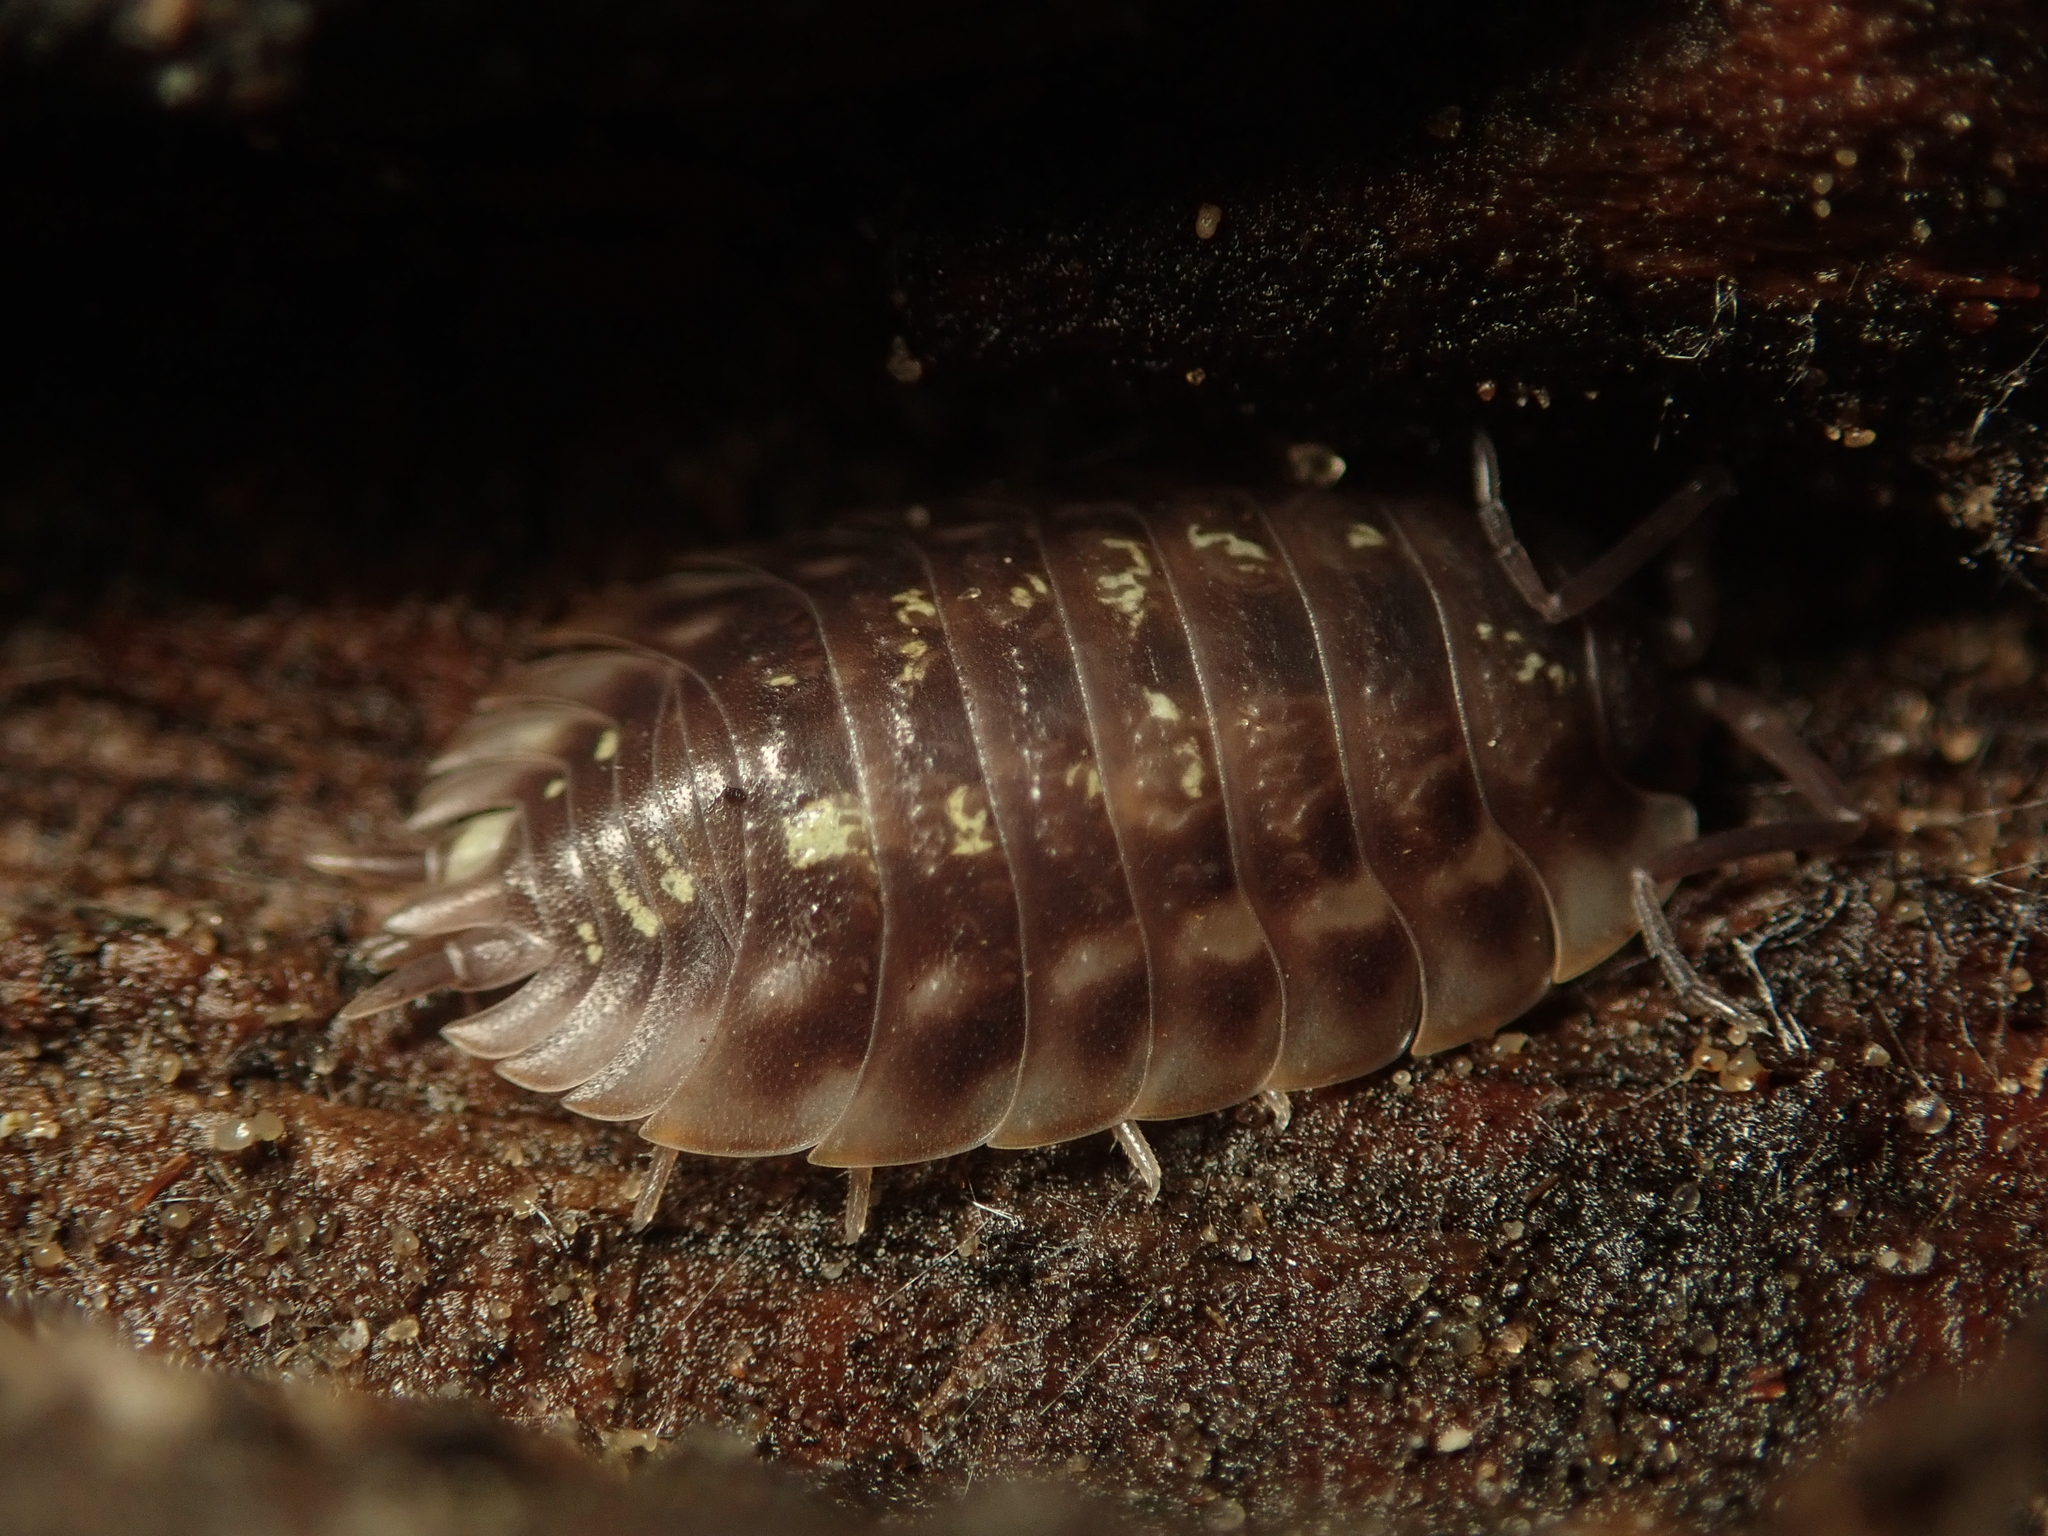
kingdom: Animalia
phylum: Arthropoda
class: Malacostraca
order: Isopoda
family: Oniscidae
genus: Oniscus
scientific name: Oniscus asellus
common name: Common shiny woodlouse
